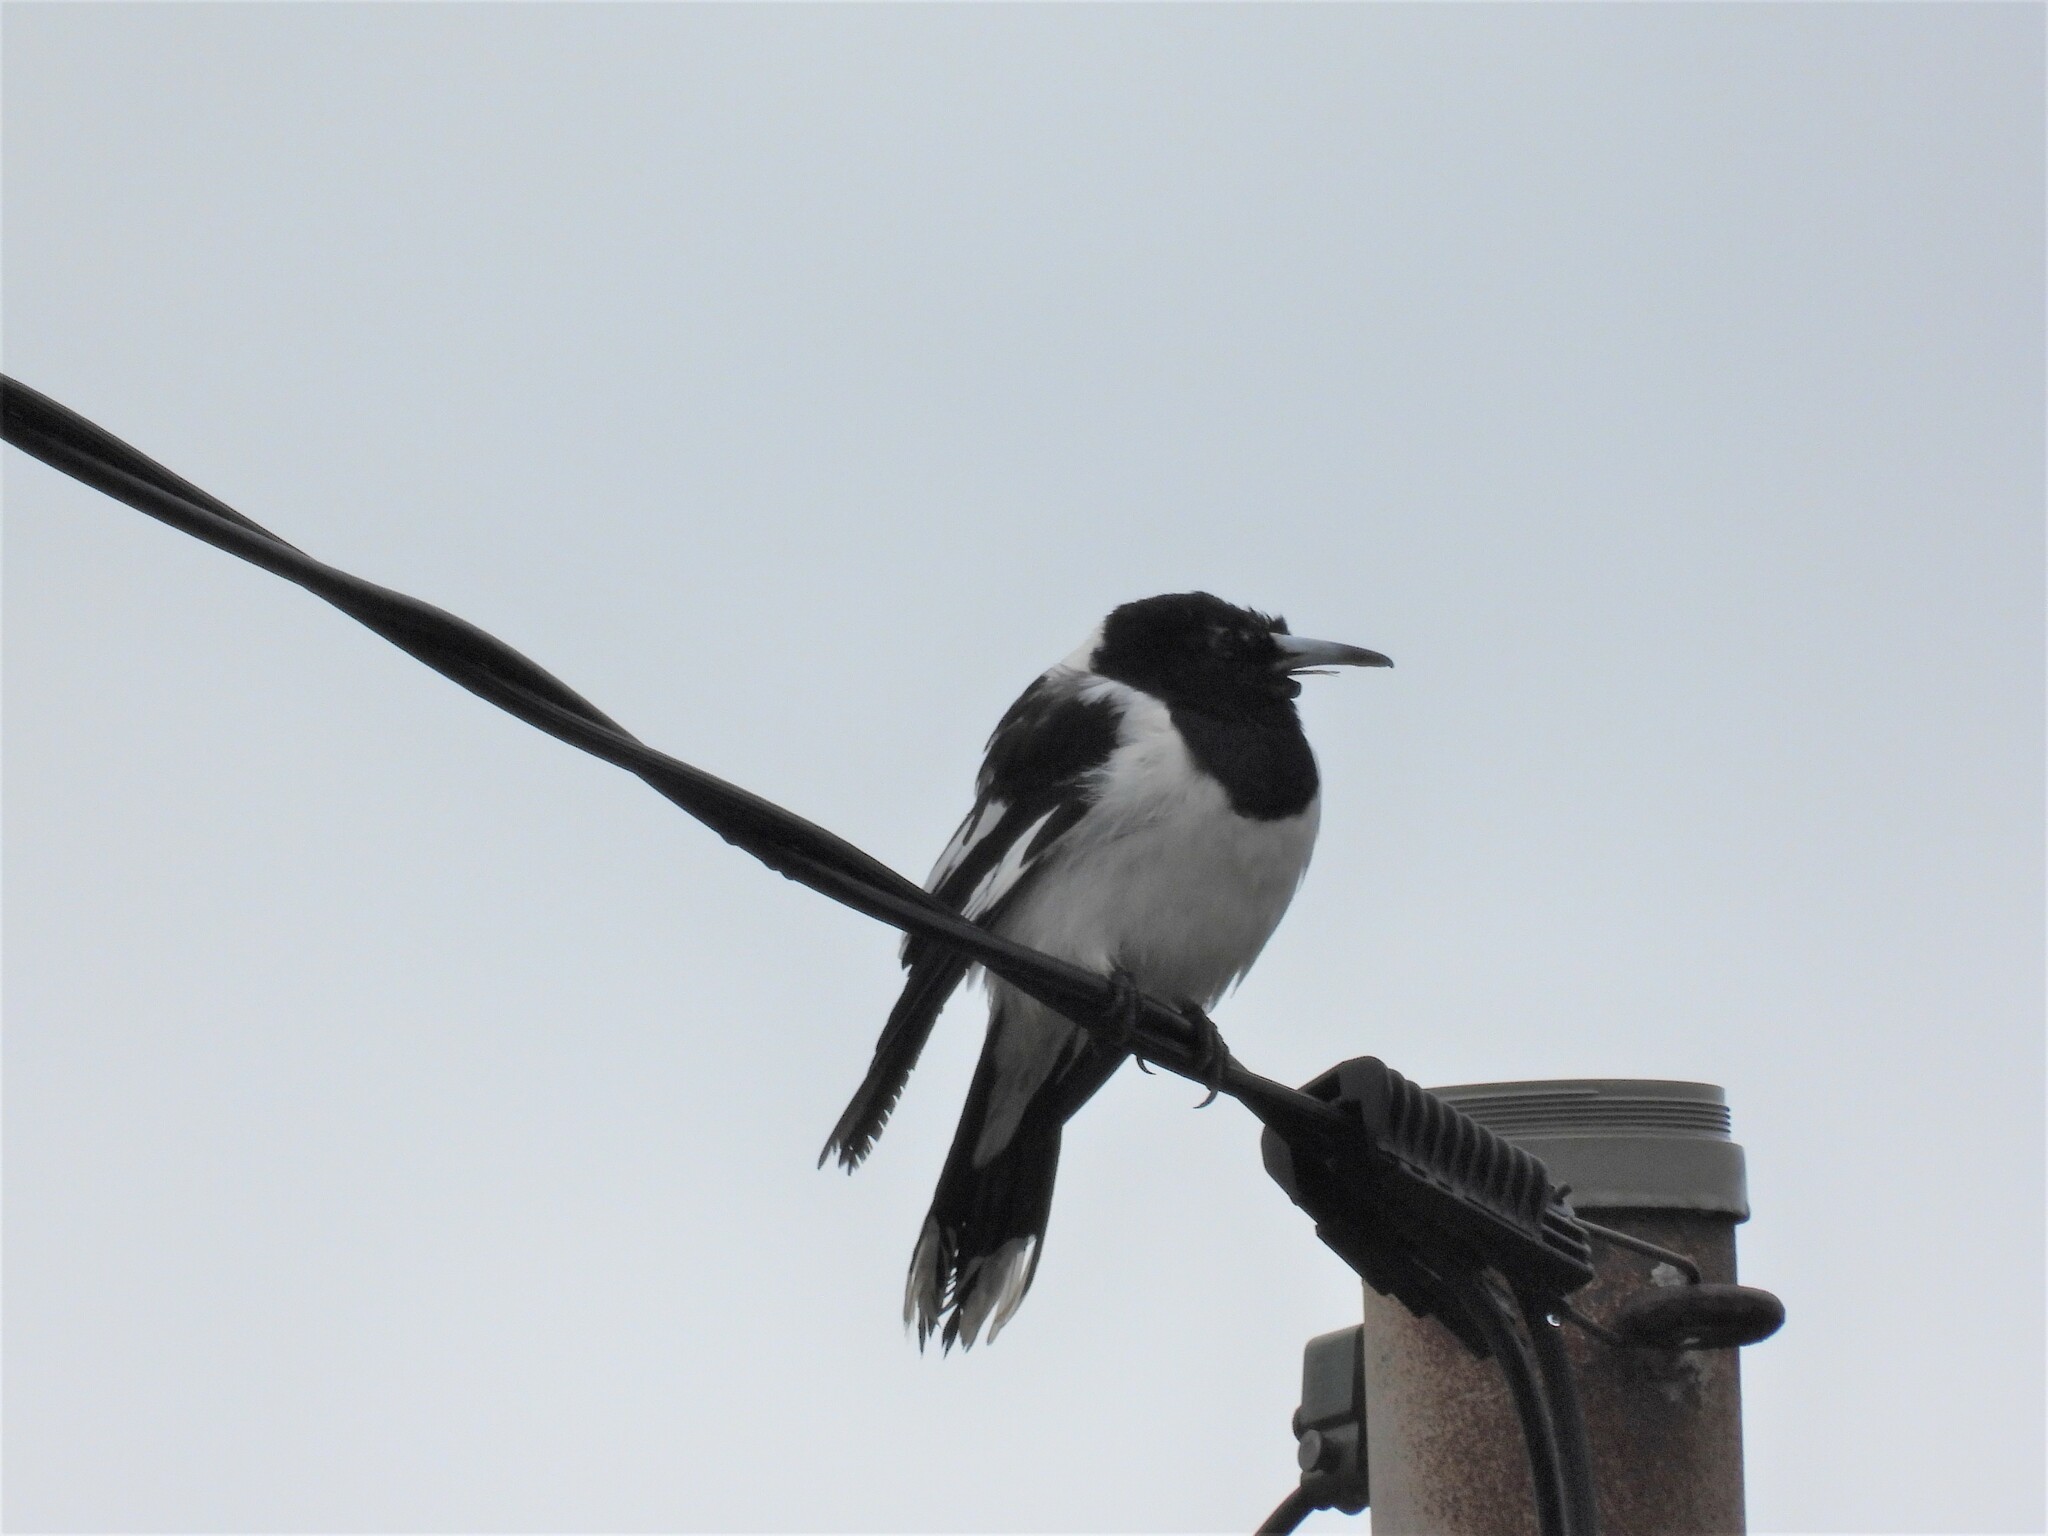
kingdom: Animalia
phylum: Chordata
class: Aves
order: Passeriformes
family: Cracticidae
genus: Cracticus
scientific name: Cracticus nigrogularis
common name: Pied butcherbird
